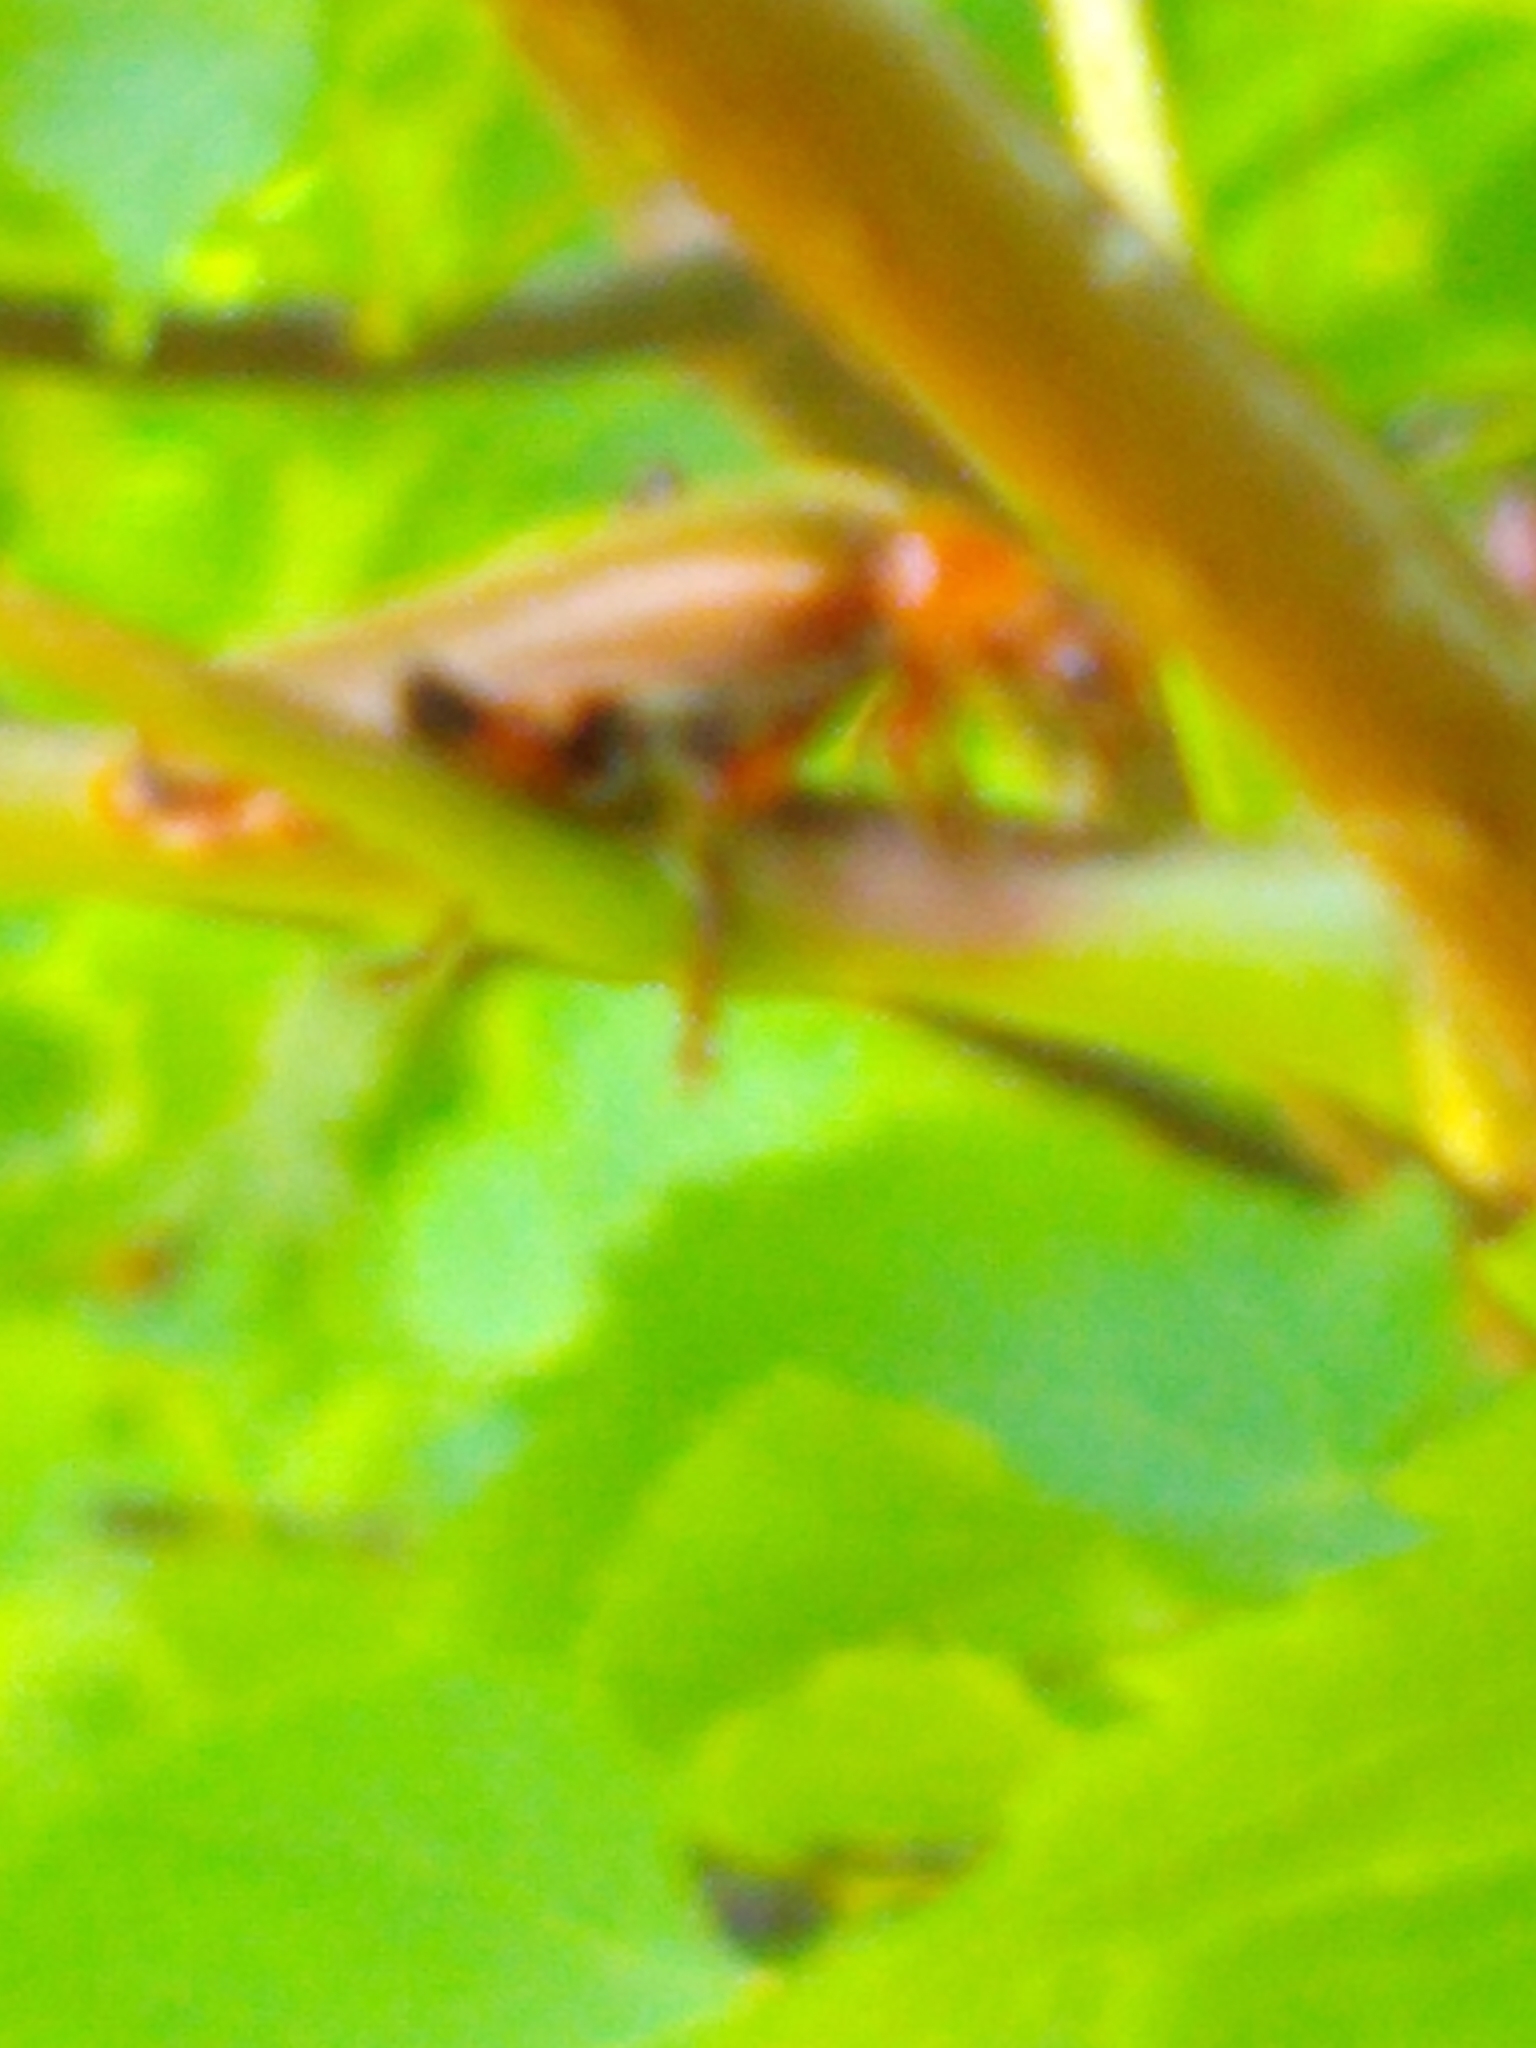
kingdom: Animalia
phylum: Arthropoda
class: Insecta
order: Coleoptera
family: Cantharidae
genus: Cantharis
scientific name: Cantharis livida
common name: Livid soldier beetle
